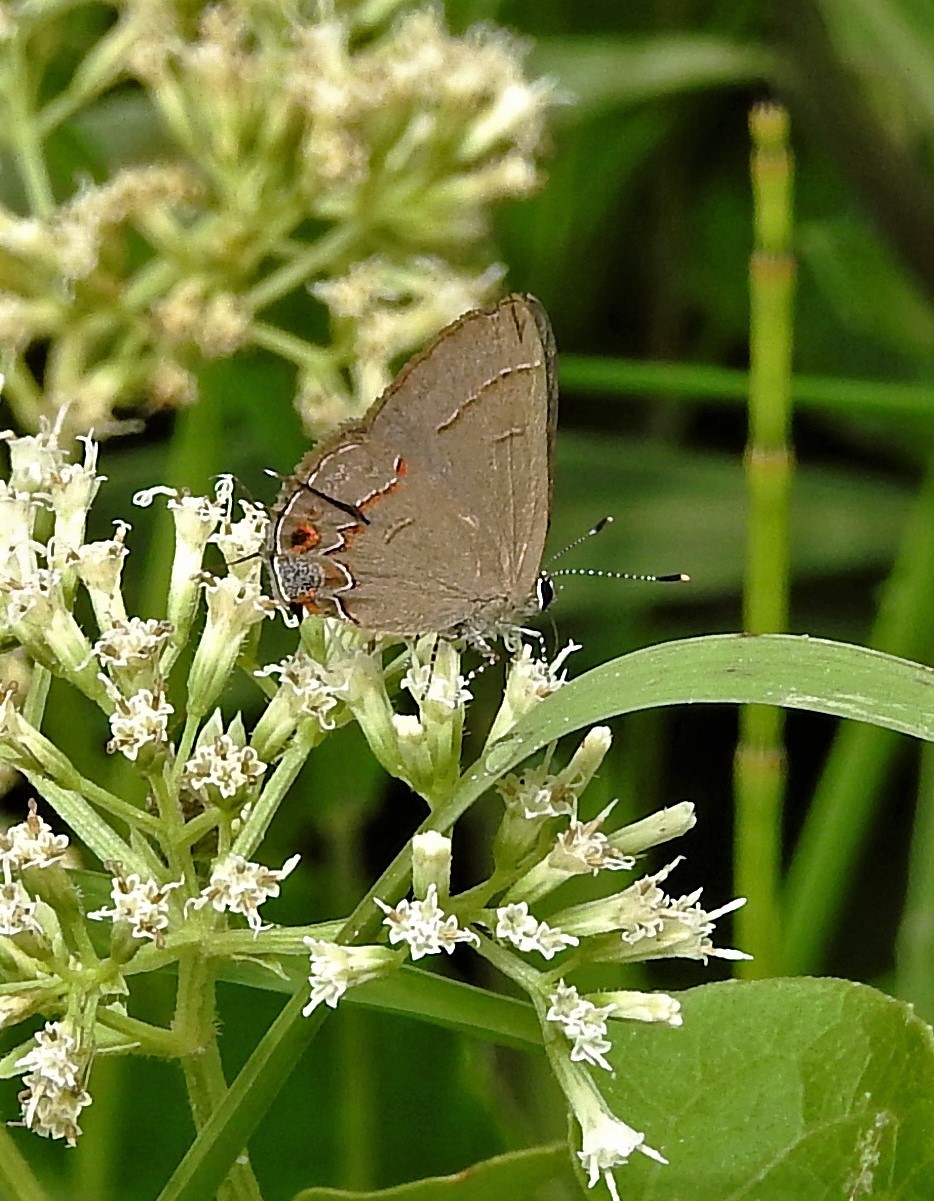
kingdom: Animalia
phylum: Arthropoda
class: Insecta
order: Lepidoptera
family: Lycaenidae
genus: Calycopis
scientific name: Calycopis caulonia
